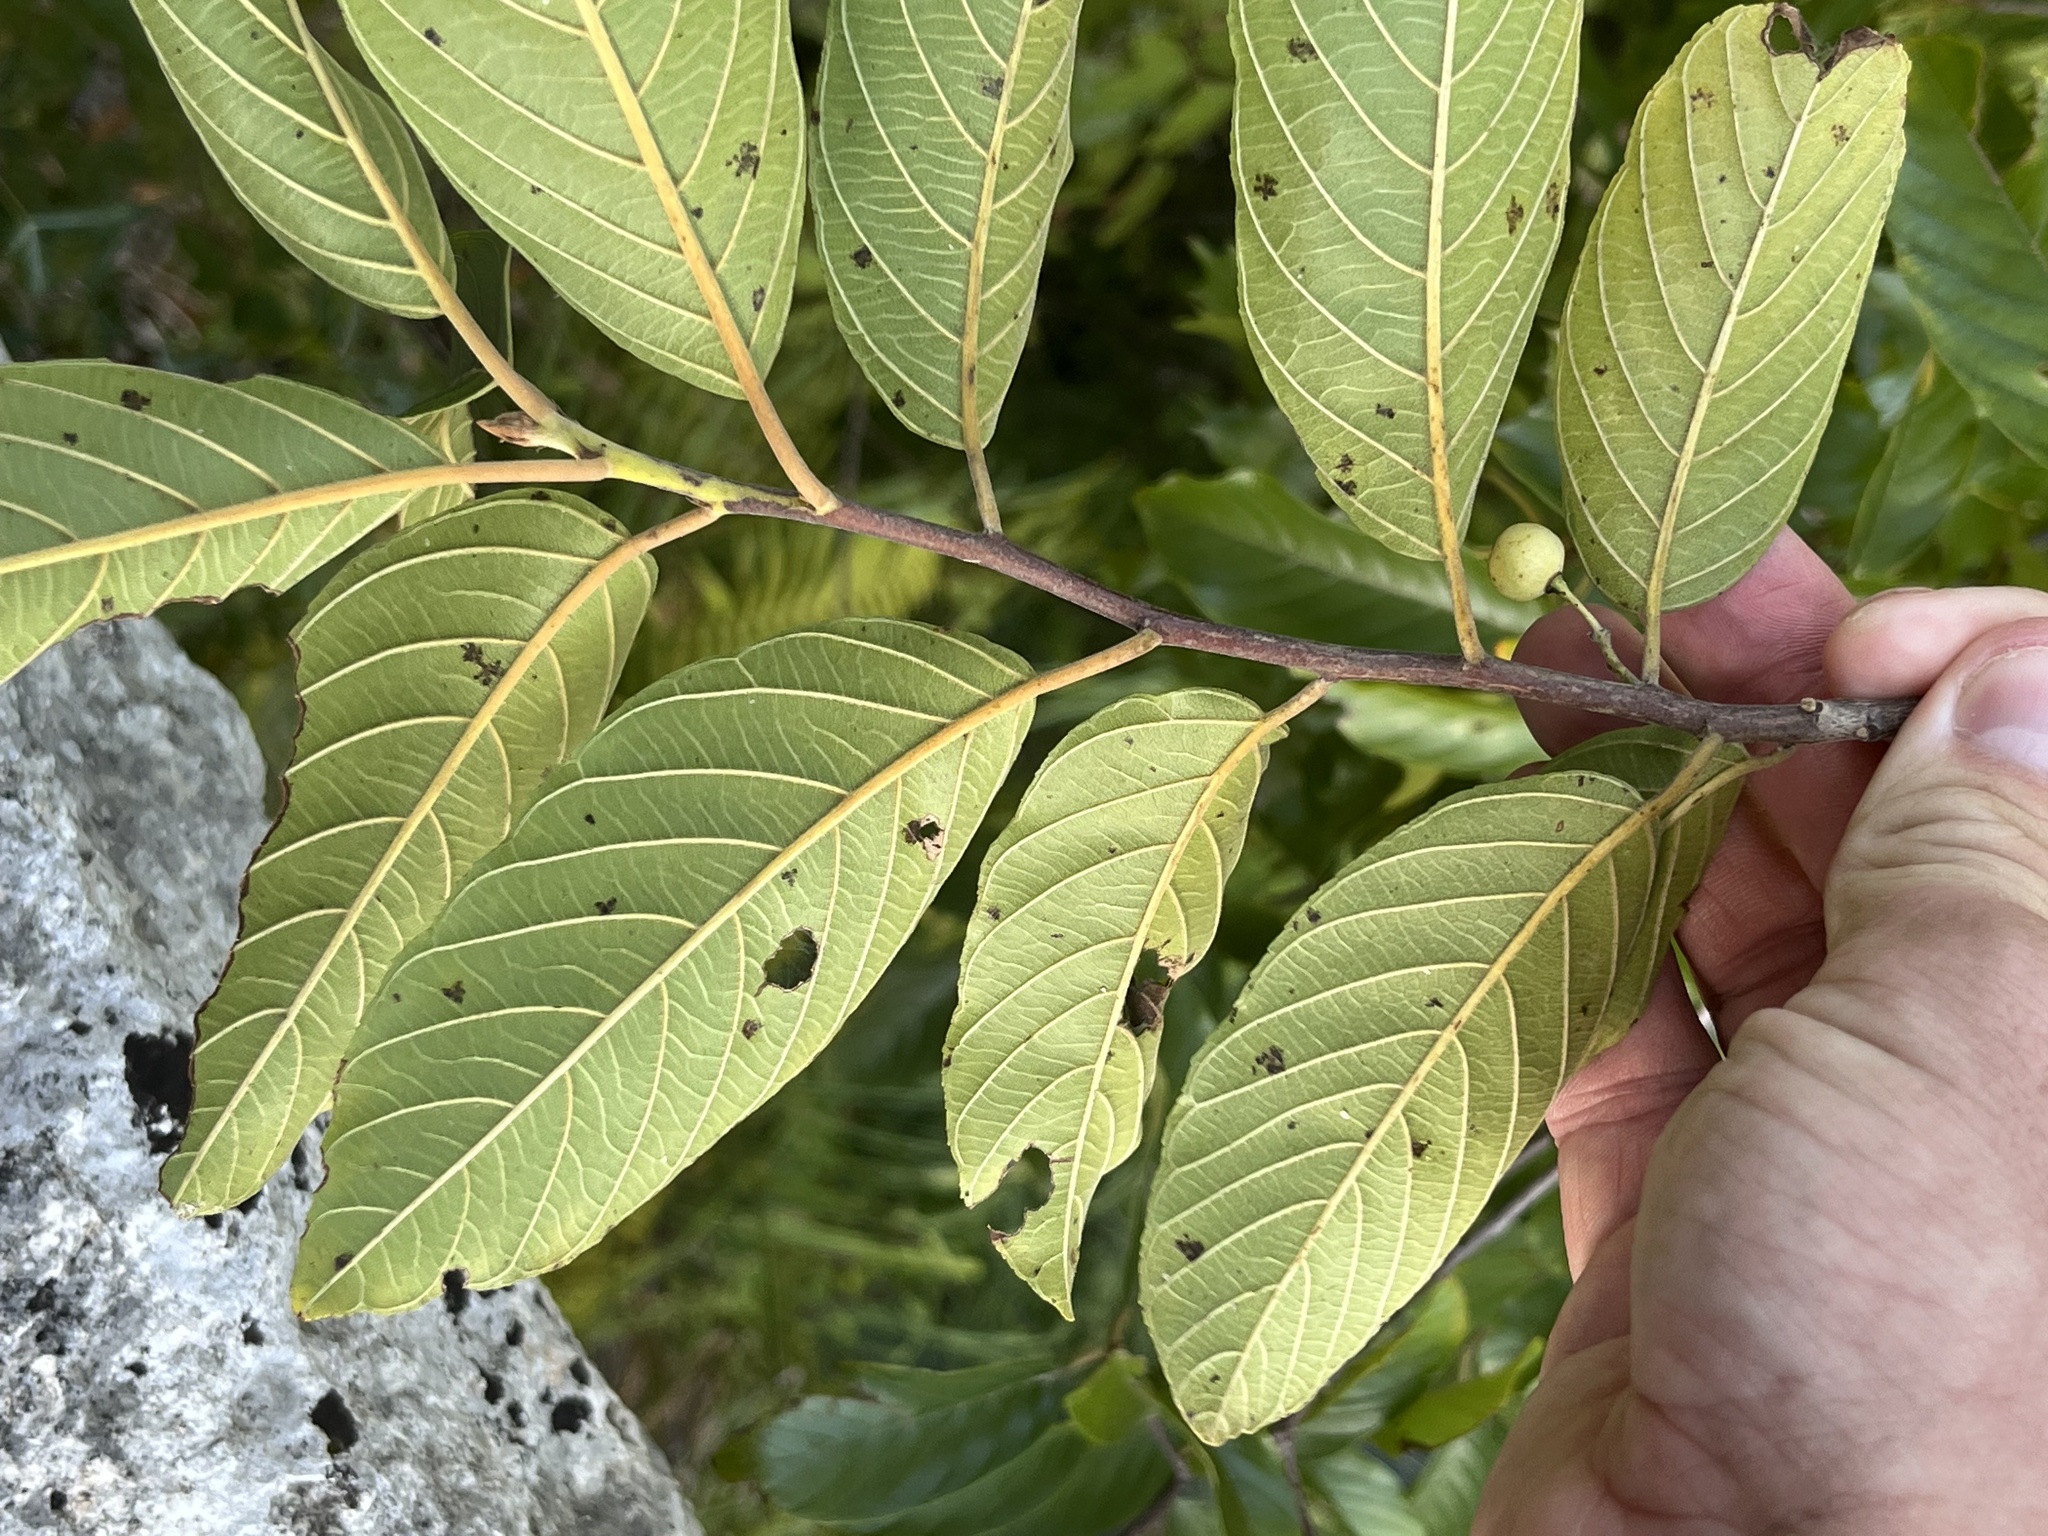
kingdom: Plantae
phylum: Tracheophyta
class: Magnoliopsida
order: Rosales
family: Rhamnaceae
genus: Frangula
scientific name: Frangula caroliniana
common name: Carolina buckthorn
